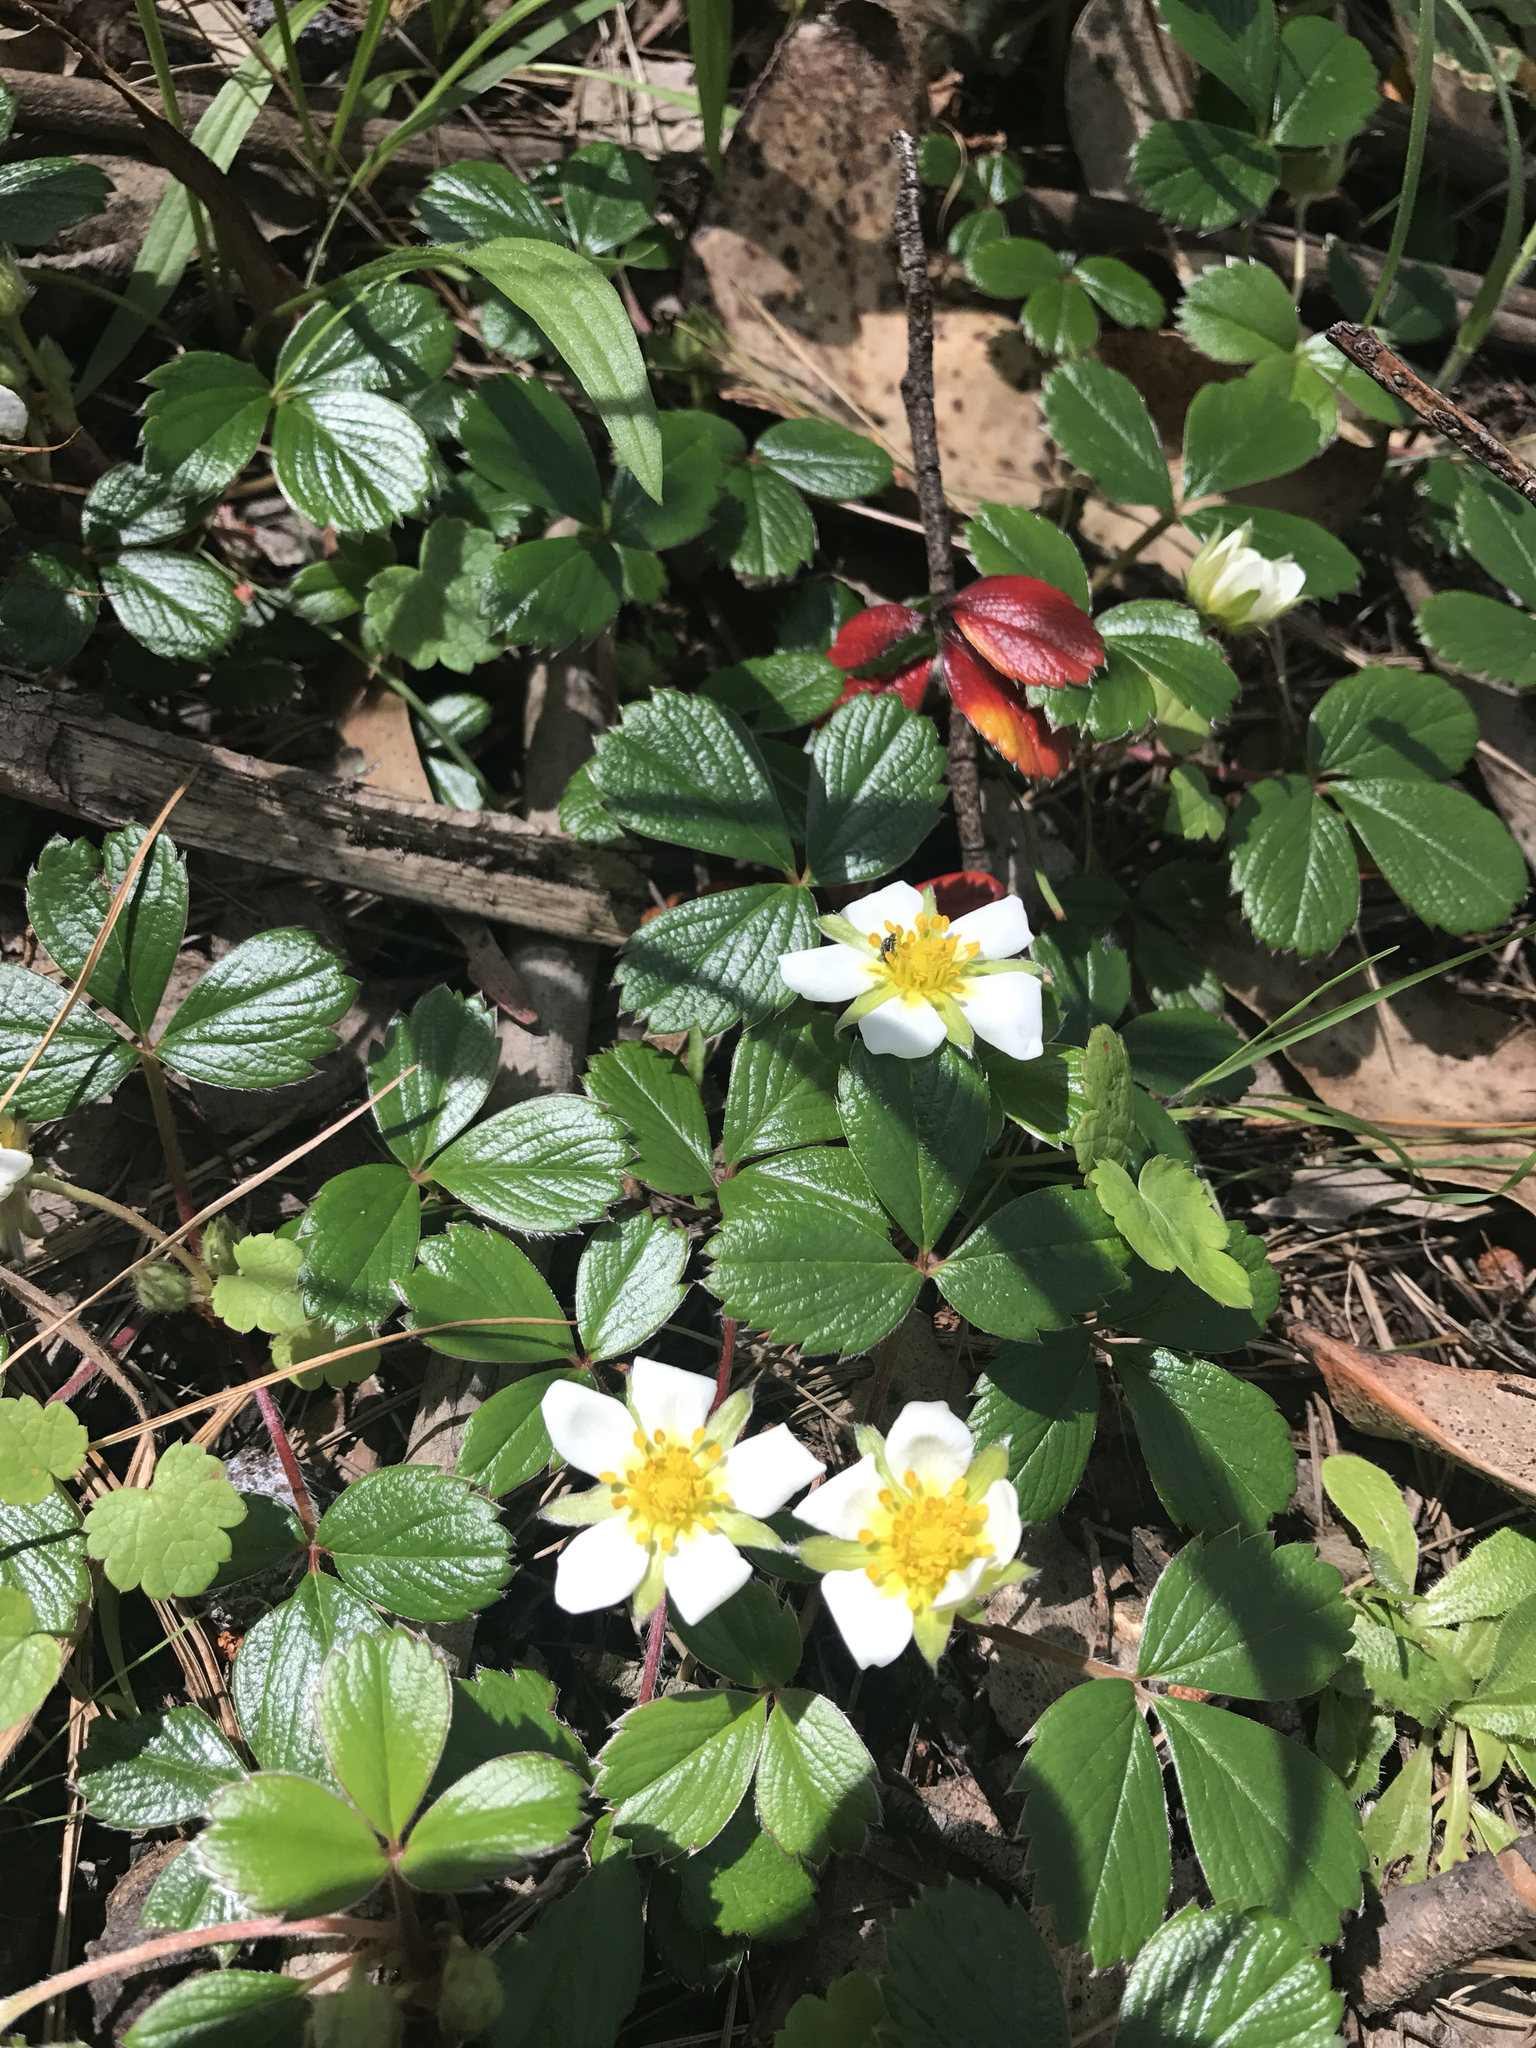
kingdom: Plantae
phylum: Tracheophyta
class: Magnoliopsida
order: Rosales
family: Rosaceae
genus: Fragaria
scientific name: Fragaria chiloensis
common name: Beach strawberry
